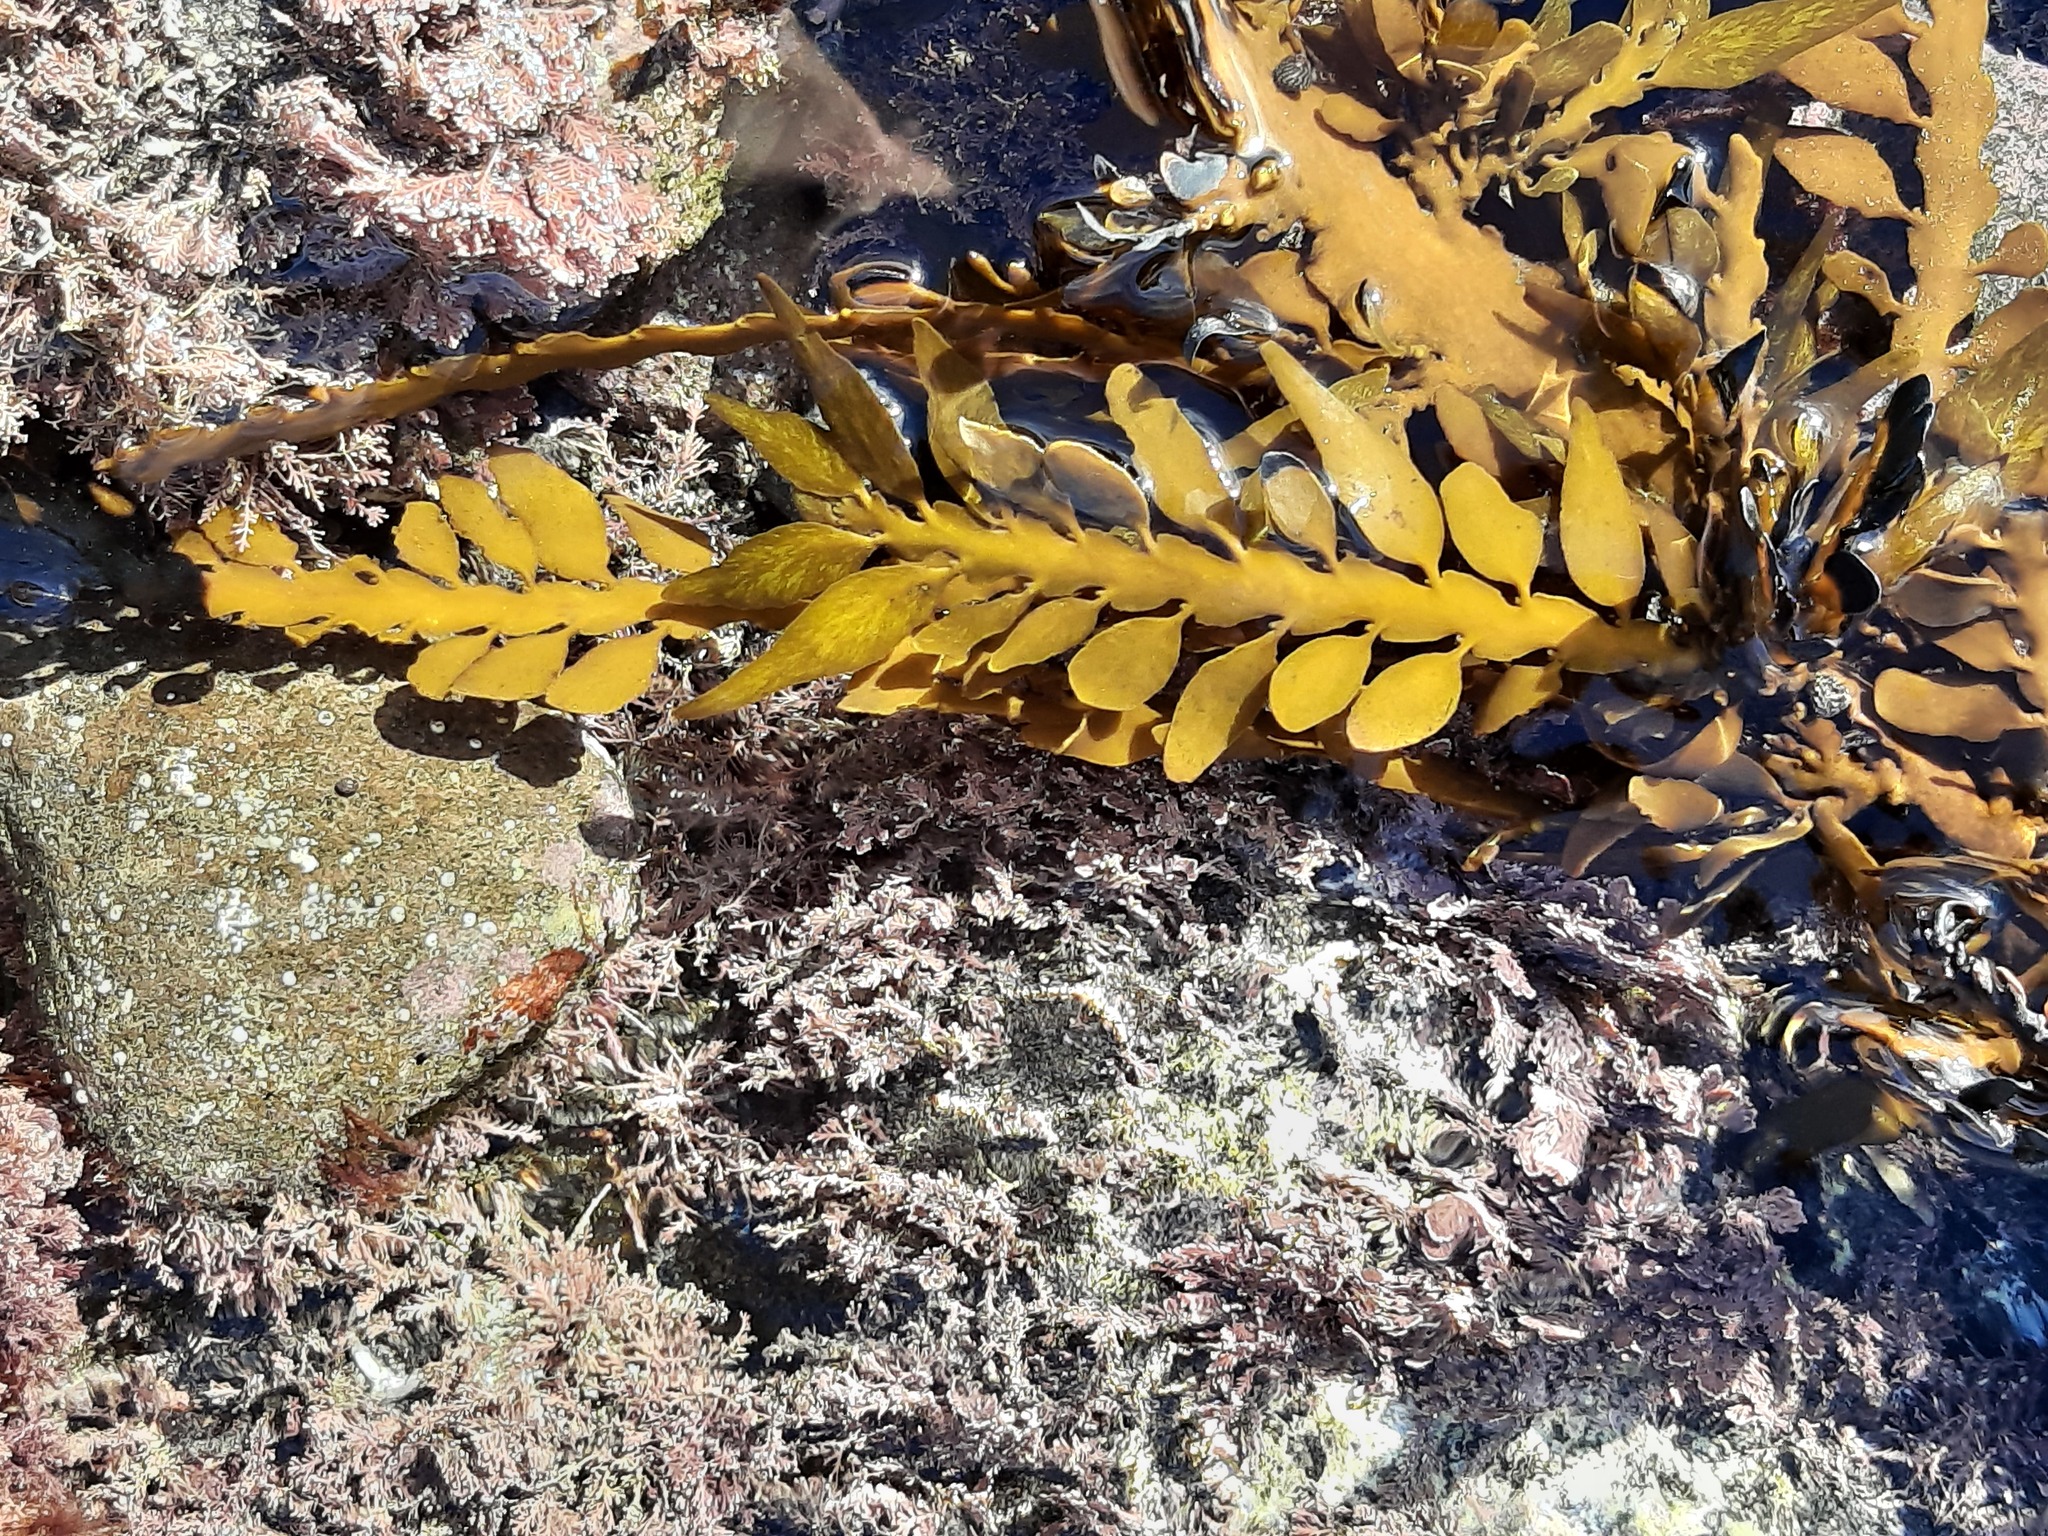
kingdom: Chromista
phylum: Ochrophyta
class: Phaeophyceae
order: Fucales
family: Sargassaceae
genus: Carpophyllum
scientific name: Carpophyllum maschalocarpum
